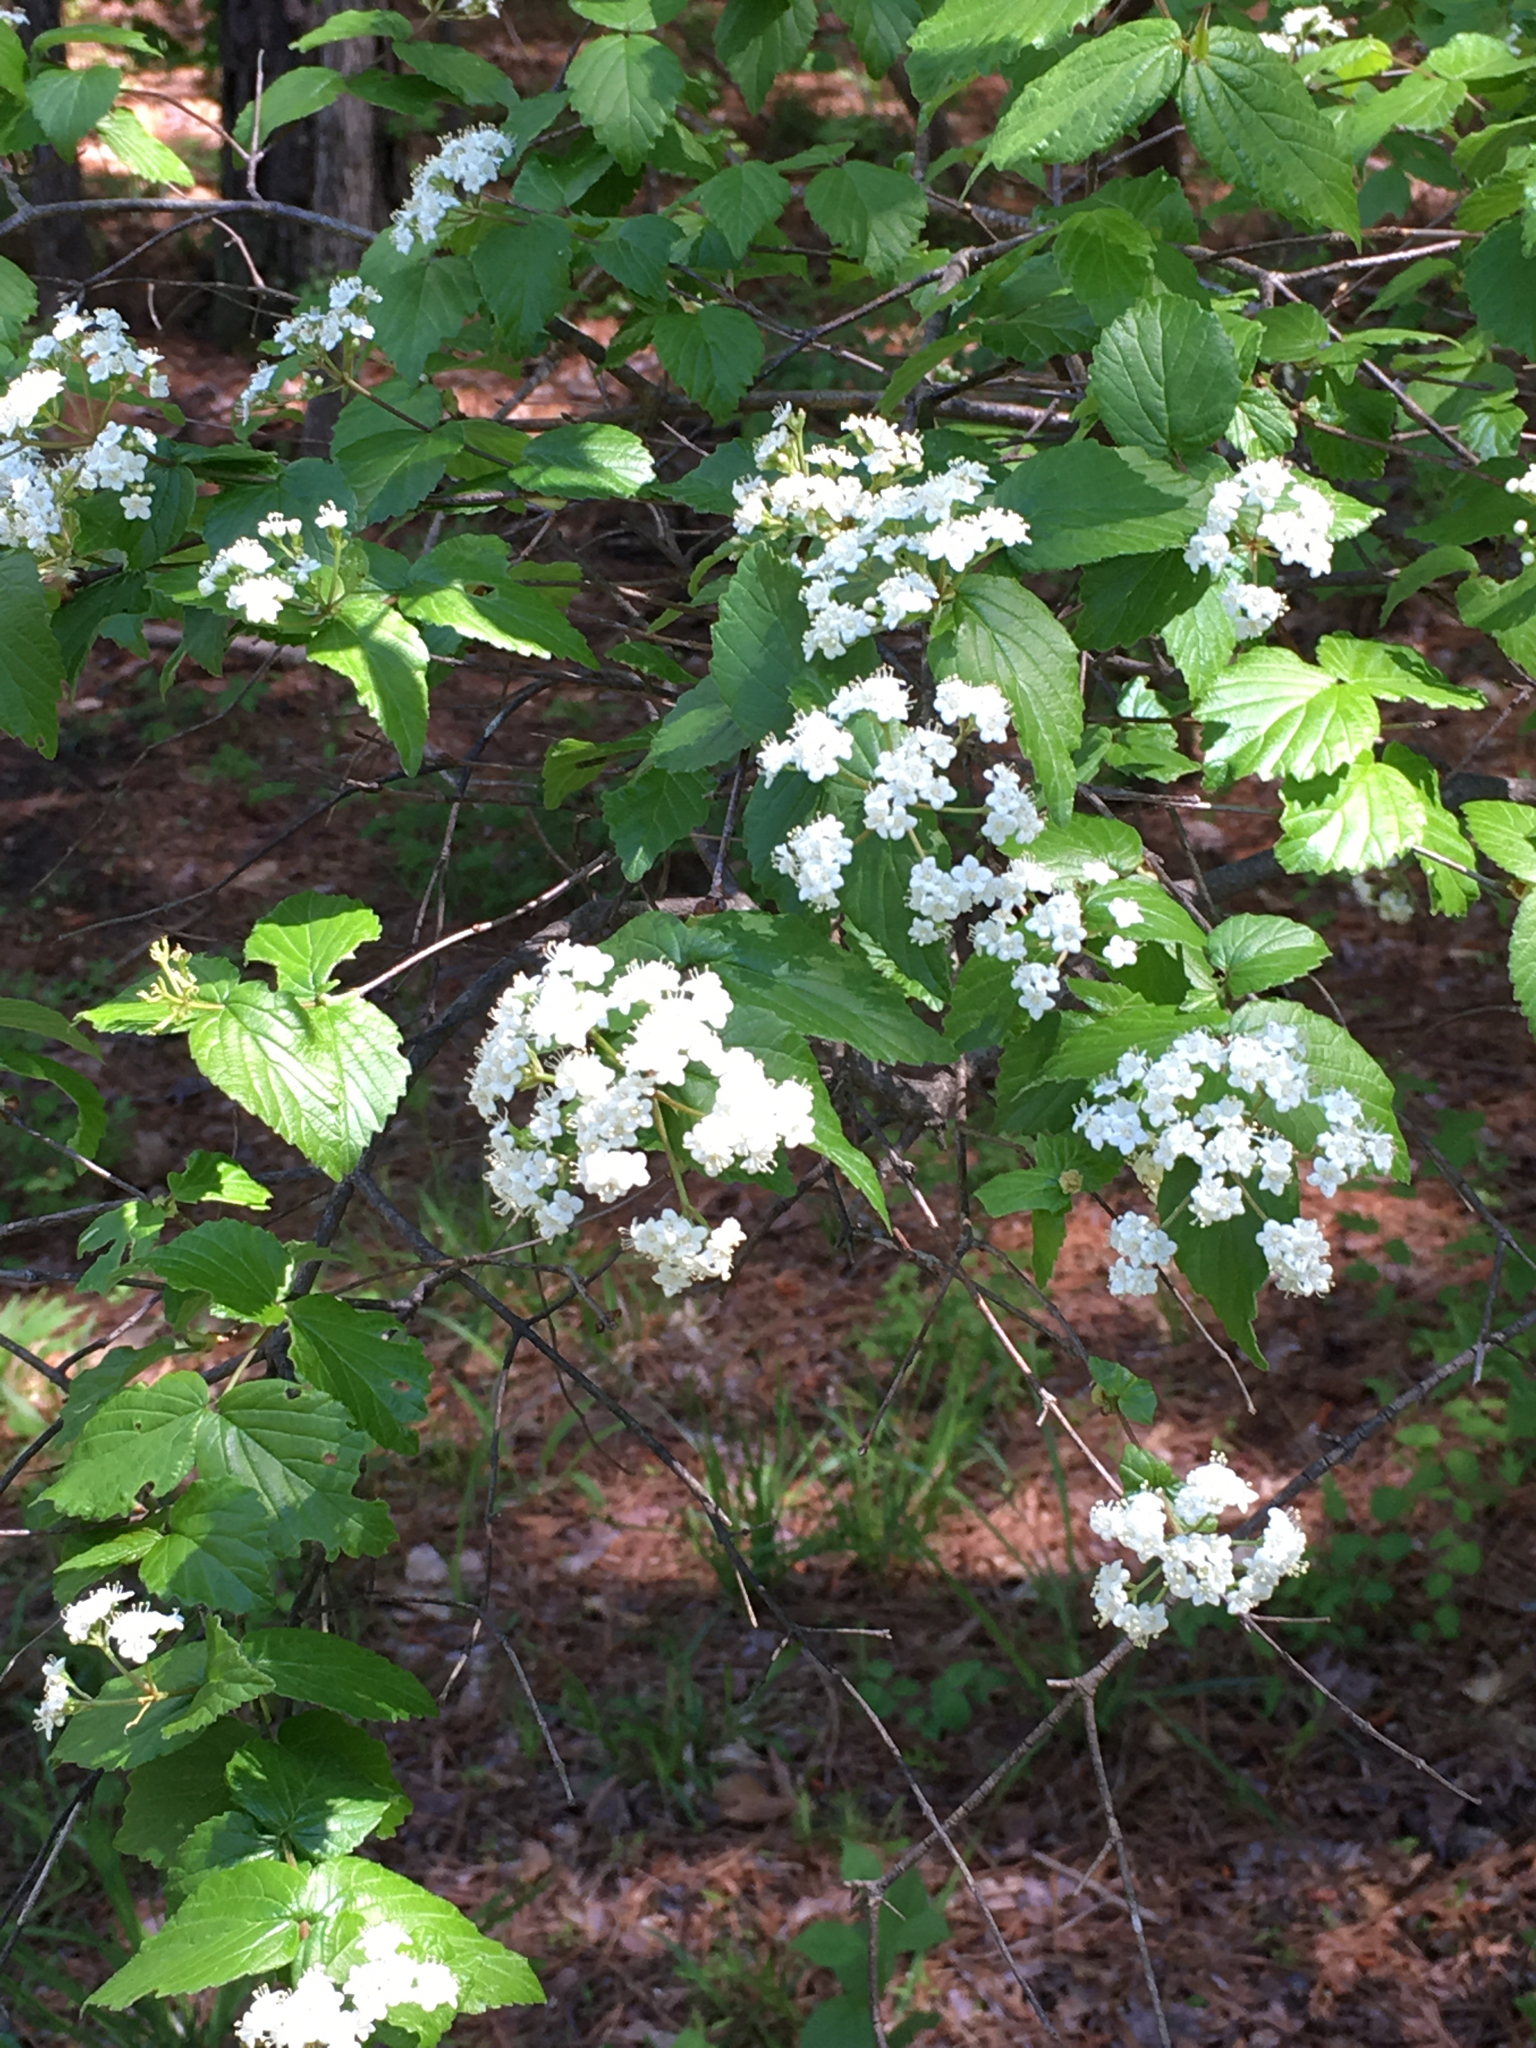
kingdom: Plantae
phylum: Tracheophyta
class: Magnoliopsida
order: Dipsacales
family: Viburnaceae
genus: Viburnum
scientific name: Viburnum rafinesqueanum
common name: Downy arrow-wood
